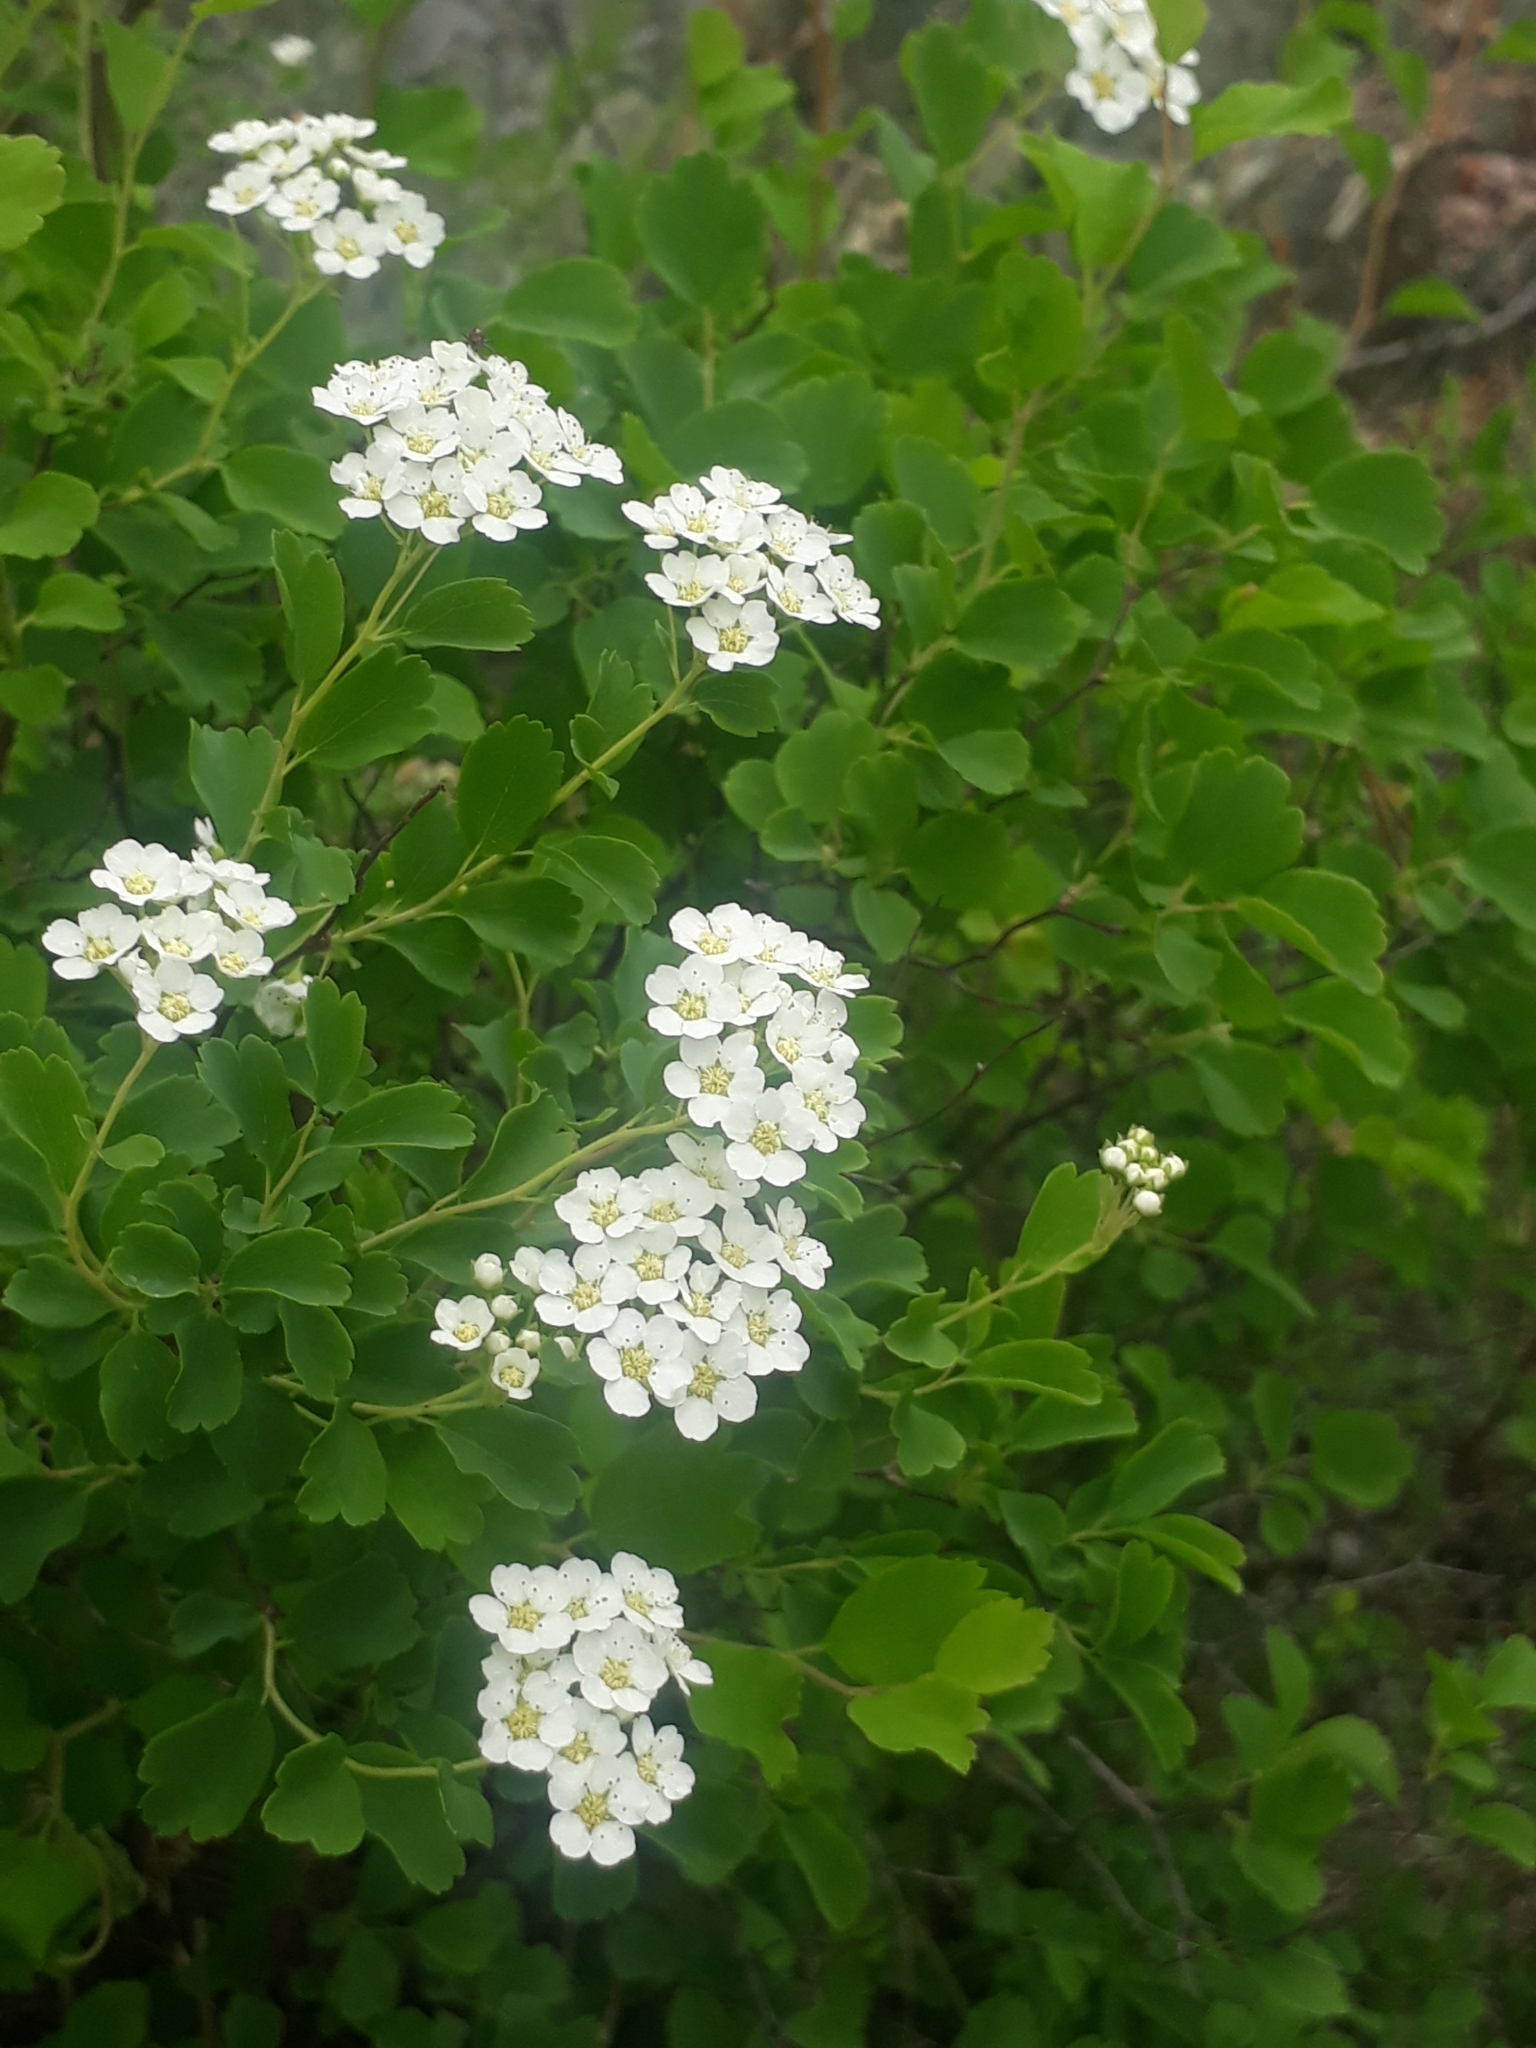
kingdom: Plantae
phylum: Tracheophyta
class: Magnoliopsida
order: Rosales
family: Rosaceae
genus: Spiraea
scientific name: Spiraea trilobata
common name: Asian meadowsweet
